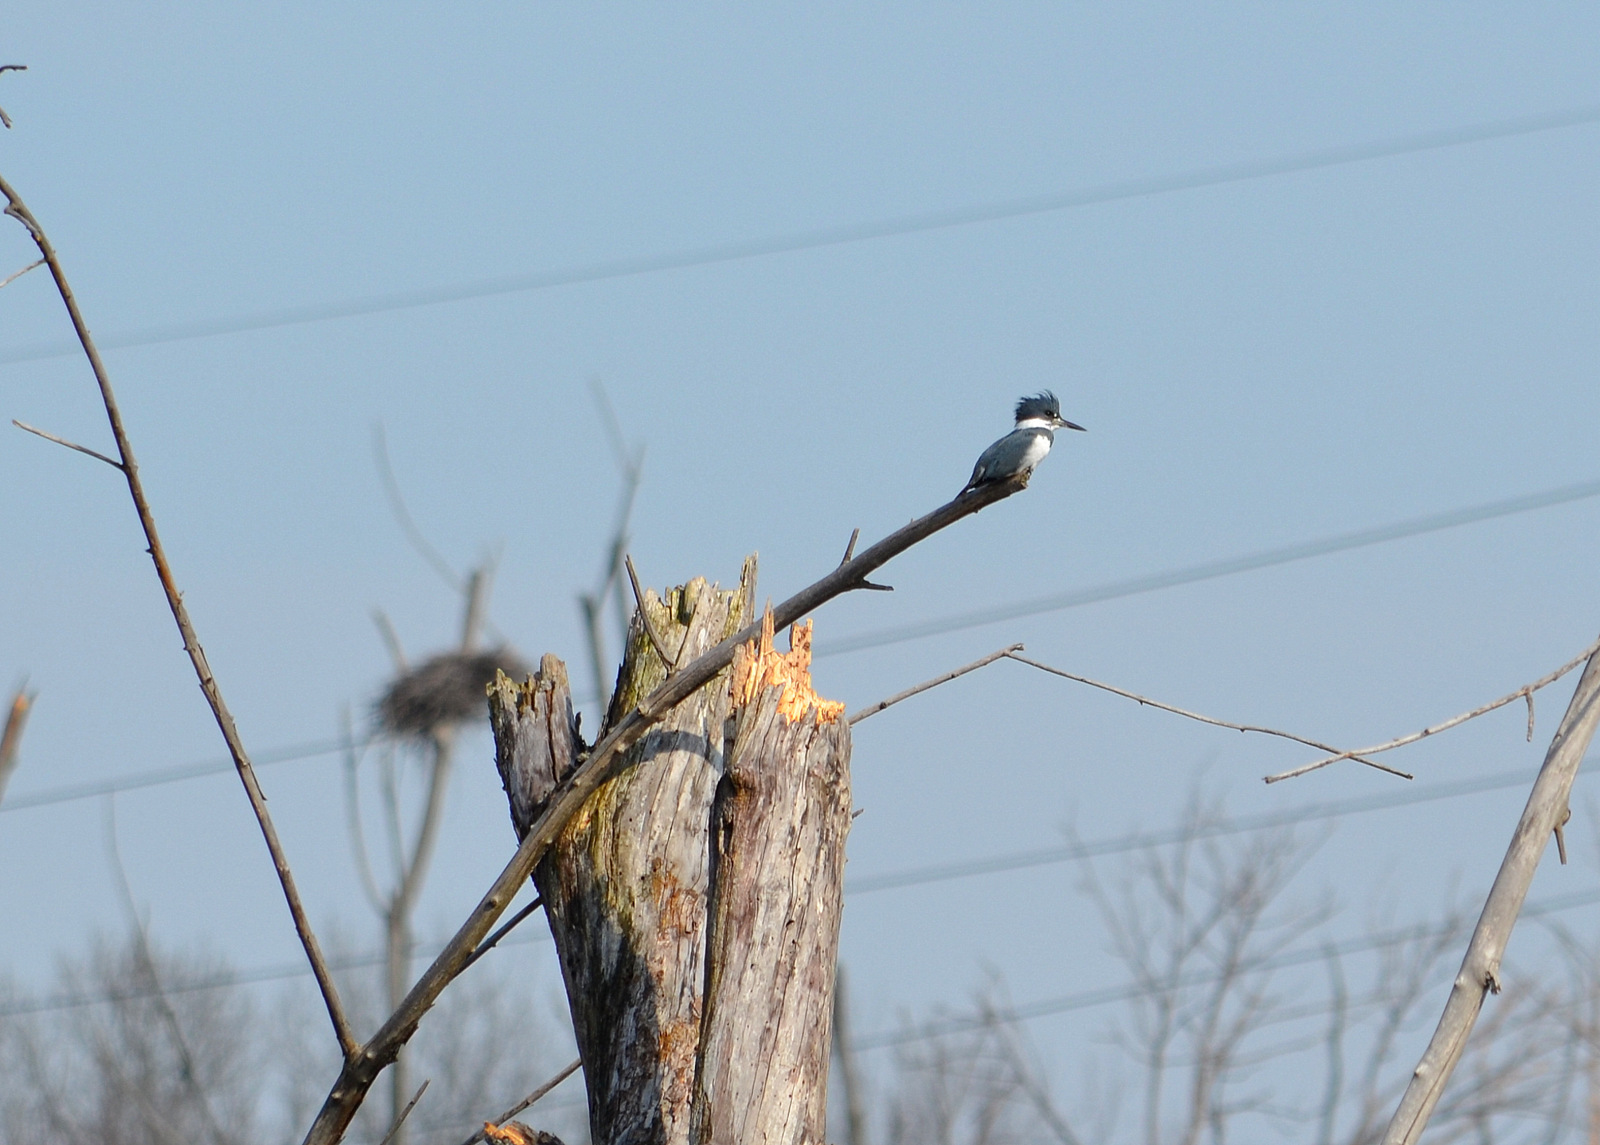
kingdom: Animalia
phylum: Chordata
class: Aves
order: Coraciiformes
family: Alcedinidae
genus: Megaceryle
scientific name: Megaceryle alcyon
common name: Belted kingfisher
